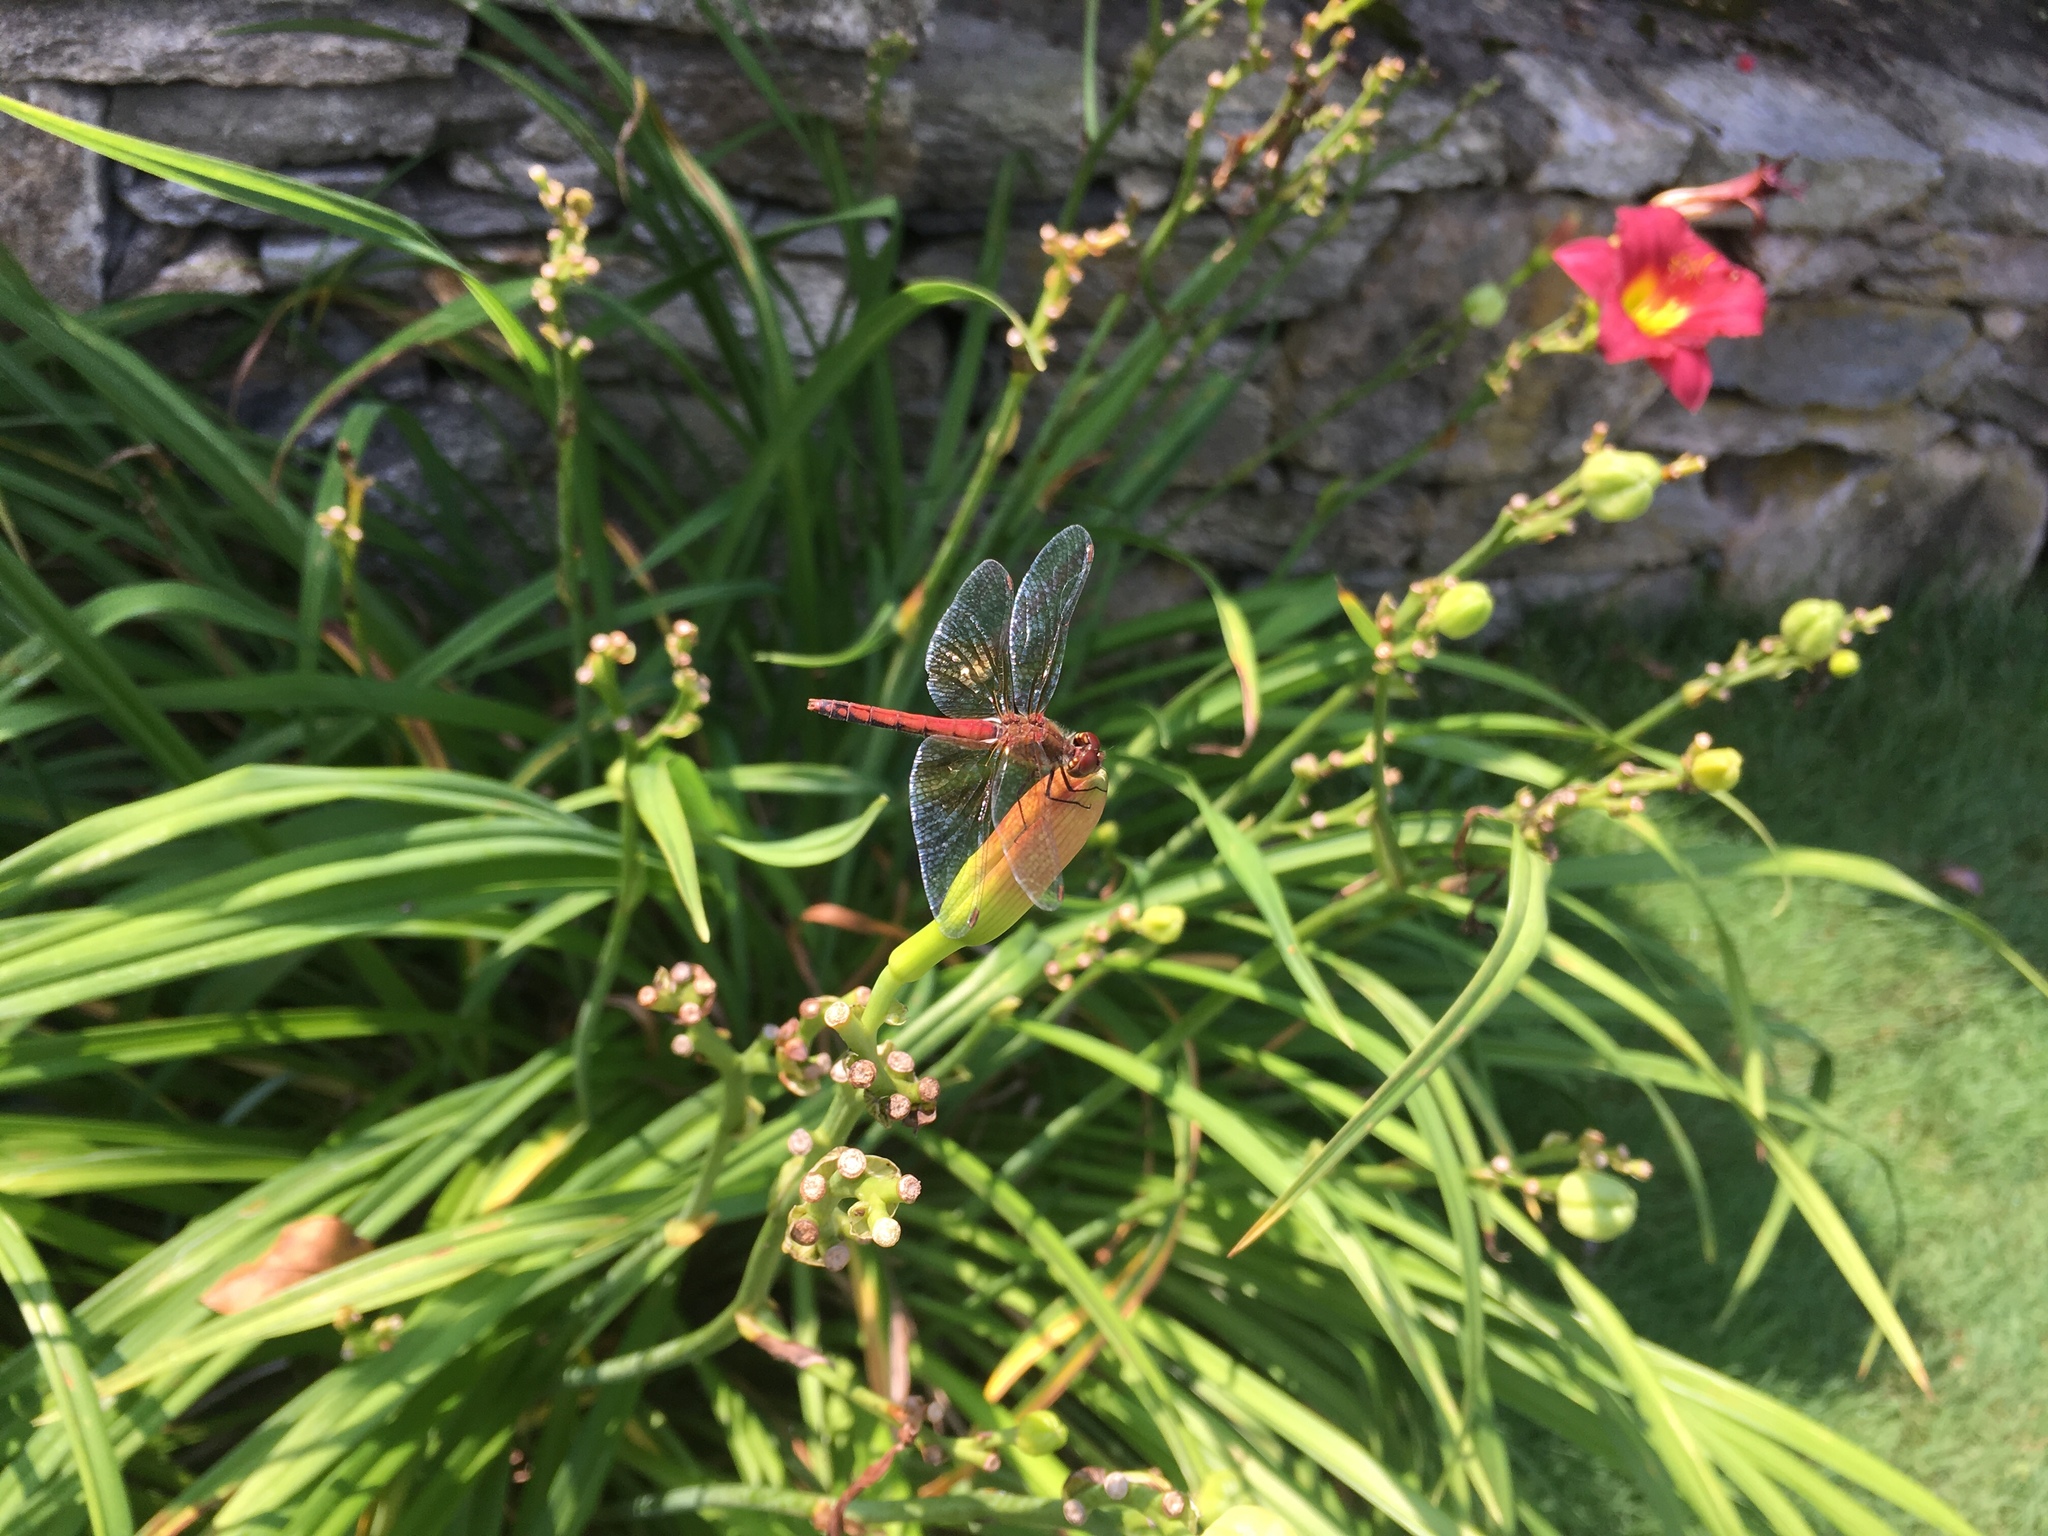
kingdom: Animalia
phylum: Arthropoda
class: Insecta
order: Odonata
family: Libellulidae
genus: Sympetrum
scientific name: Sympetrum semicinctum
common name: Band-winged meadowhawk
